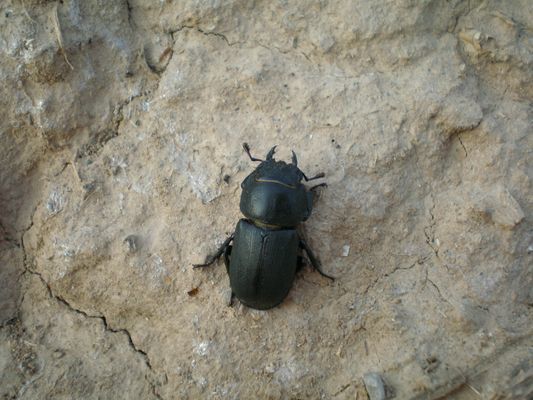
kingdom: Animalia
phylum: Arthropoda
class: Insecta
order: Coleoptera
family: Lucanidae
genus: Dorcus
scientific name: Dorcus parallelipipedus
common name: Lesser stag beetle
